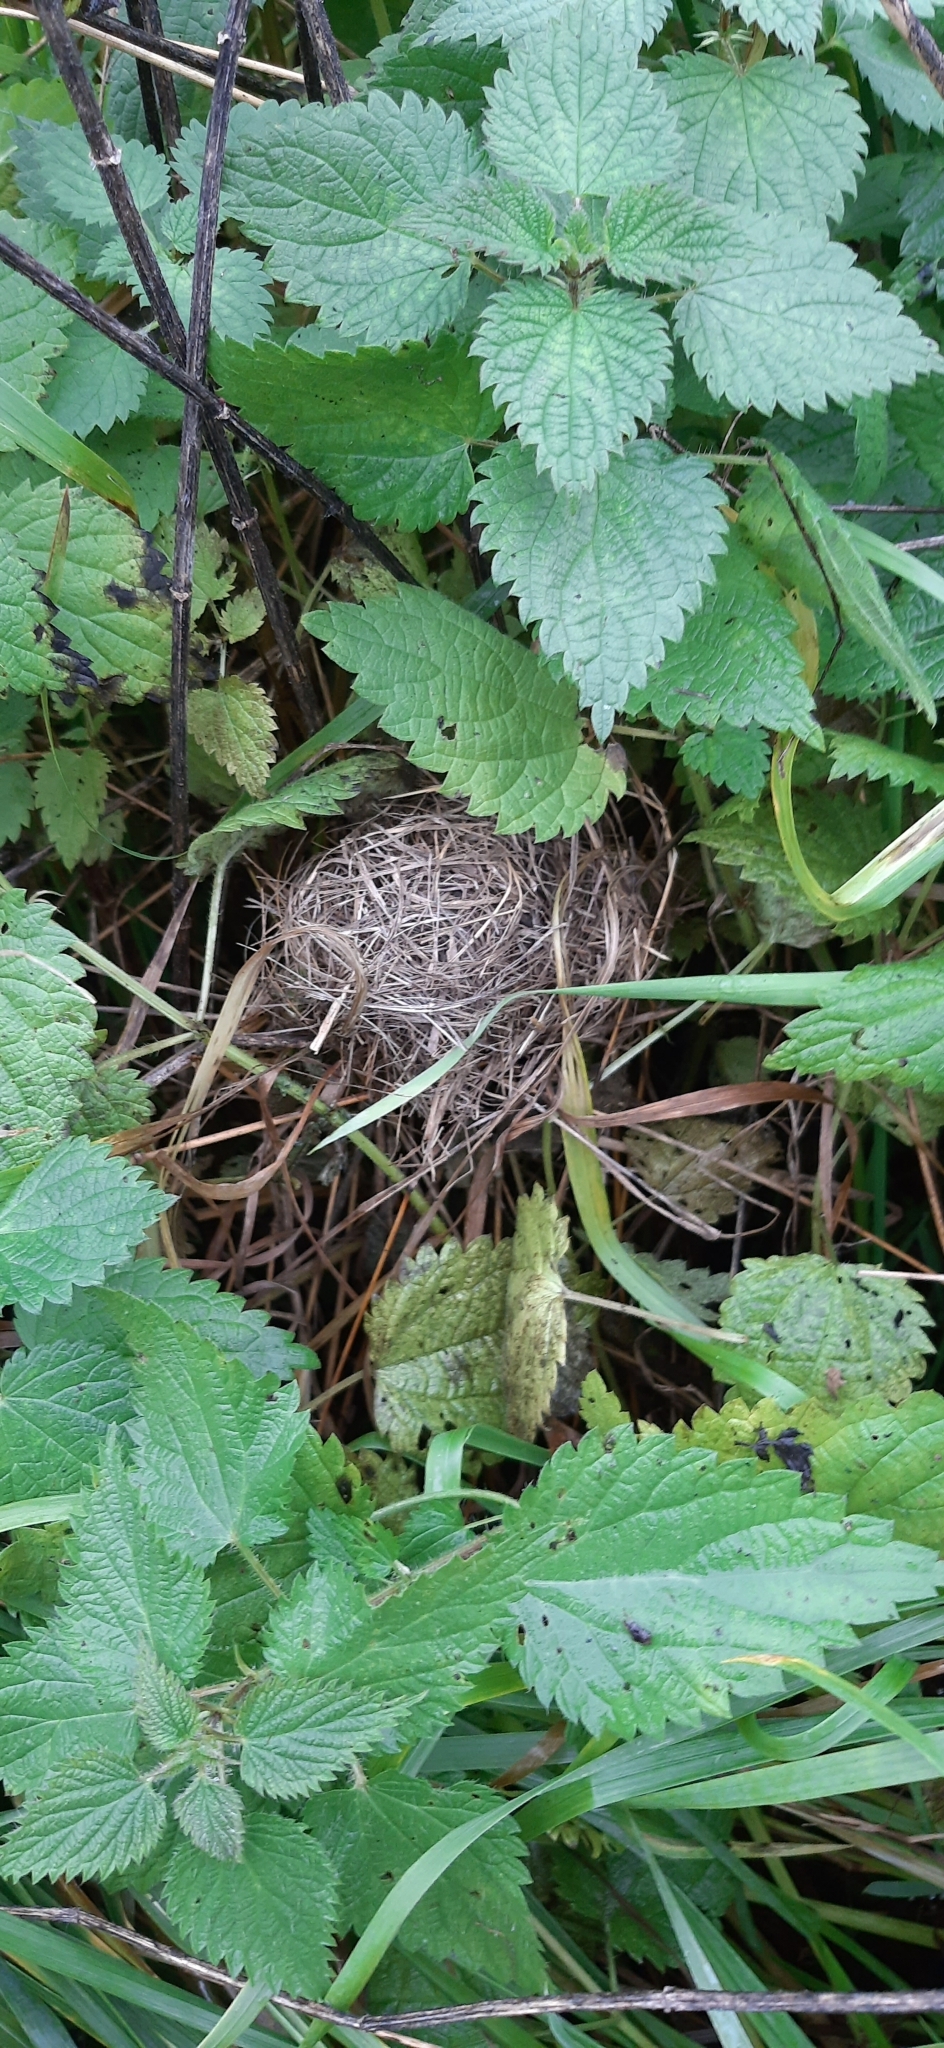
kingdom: Animalia
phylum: Chordata
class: Mammalia
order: Rodentia
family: Muridae
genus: Micromys
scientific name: Micromys minutus
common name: Harvest mouse
